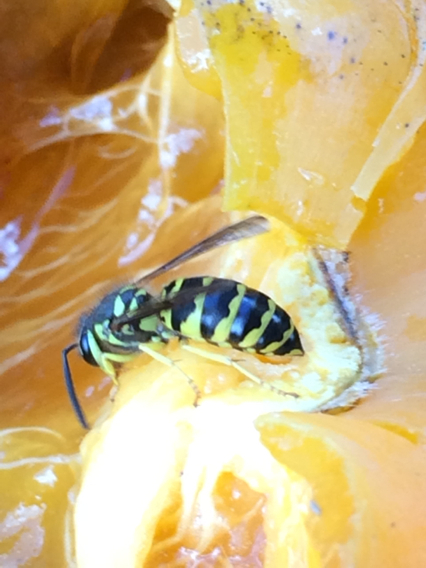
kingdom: Animalia
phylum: Arthropoda
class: Insecta
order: Hymenoptera
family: Vespidae
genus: Vespula
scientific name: Vespula maculifrons
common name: Eastern yellowjacket
